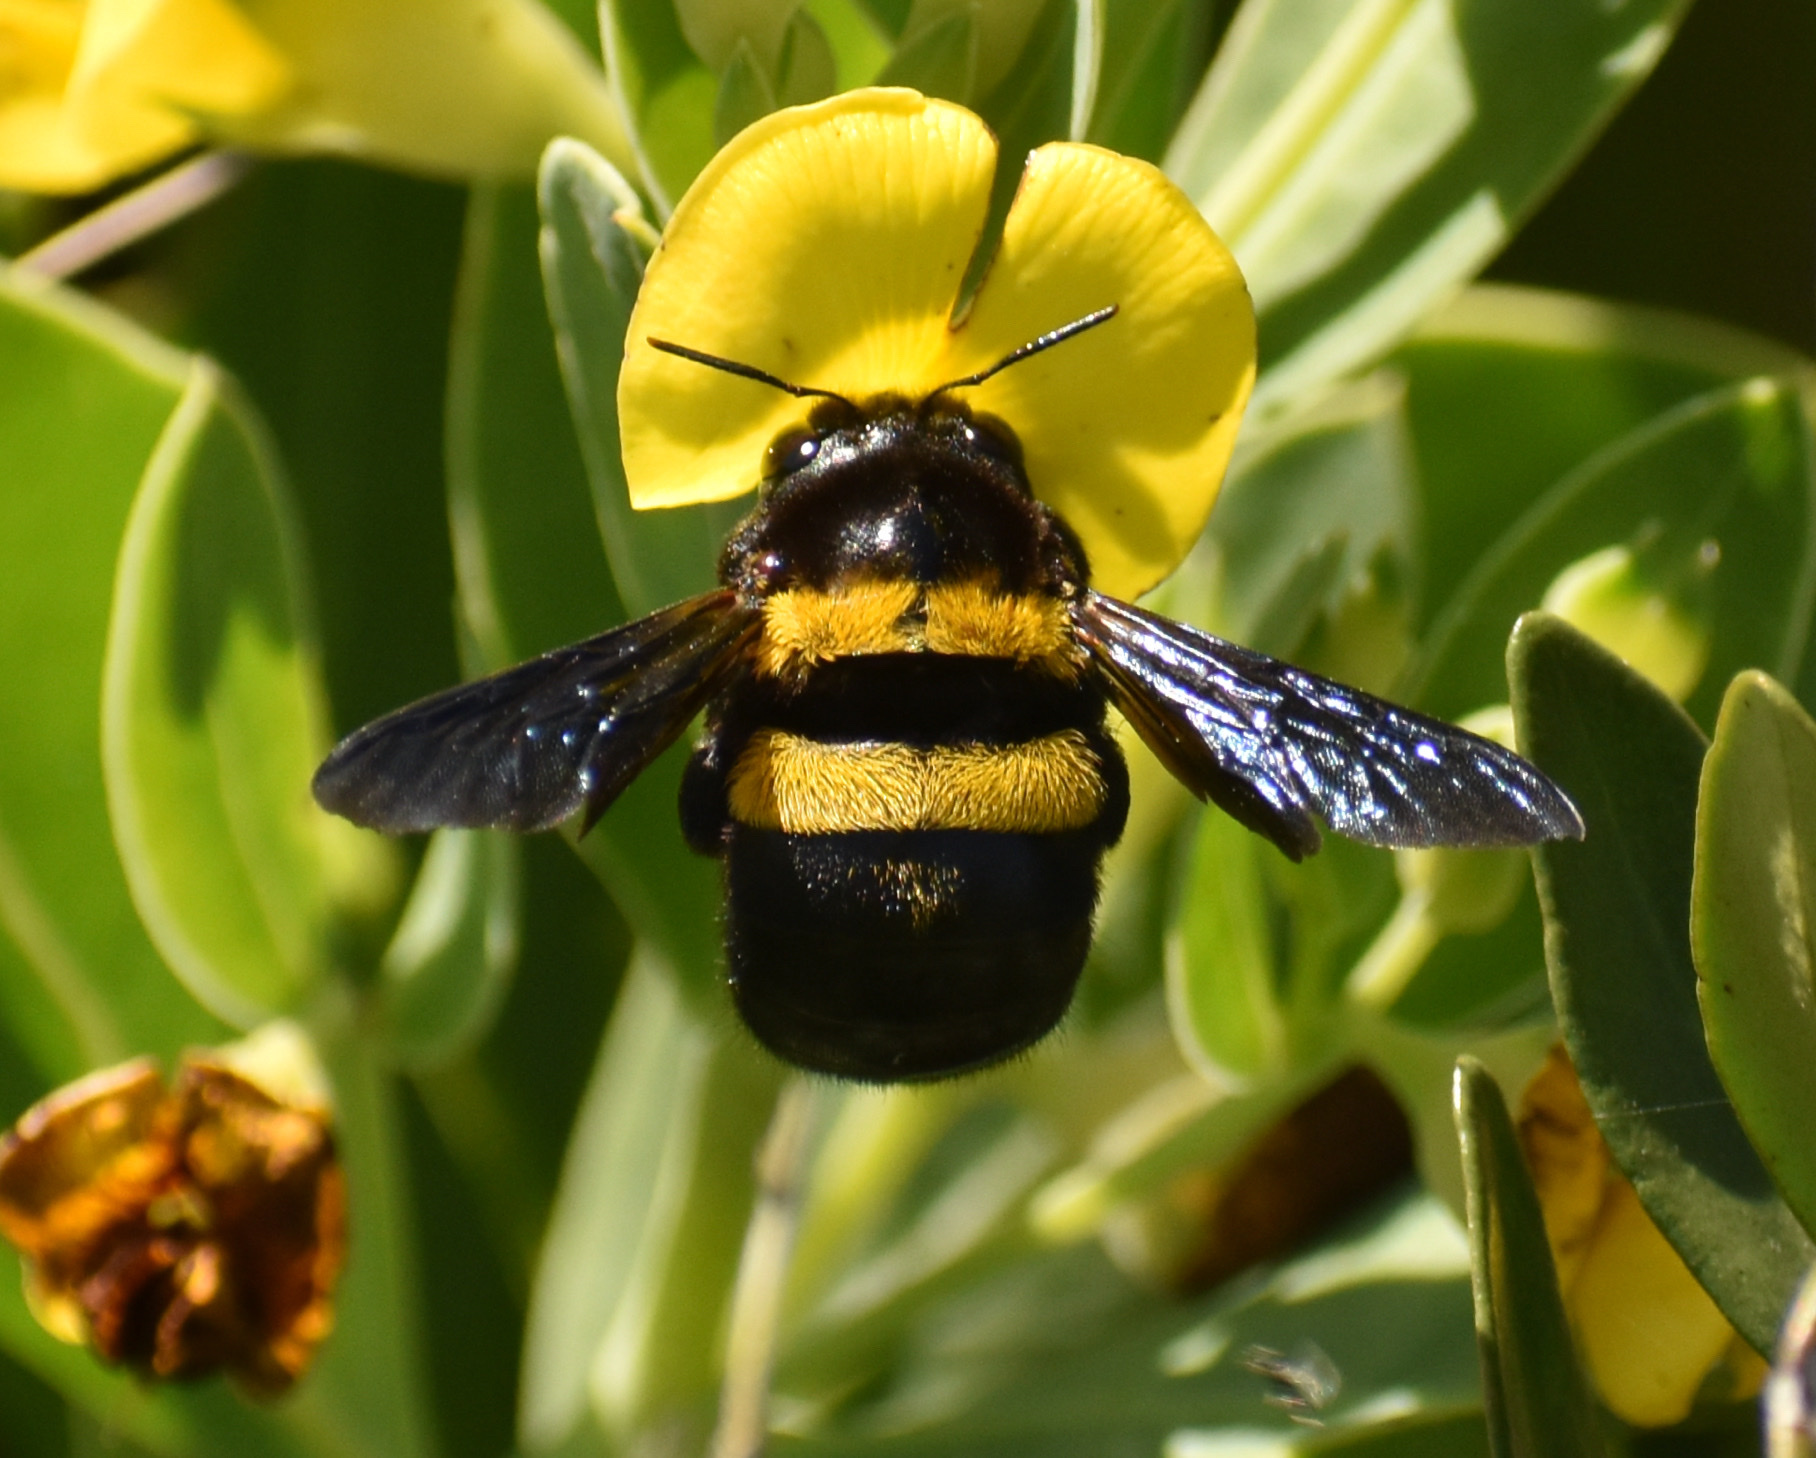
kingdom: Animalia
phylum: Arthropoda
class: Insecta
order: Hymenoptera
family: Apidae
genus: Xylocopa
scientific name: Xylocopa caffra
